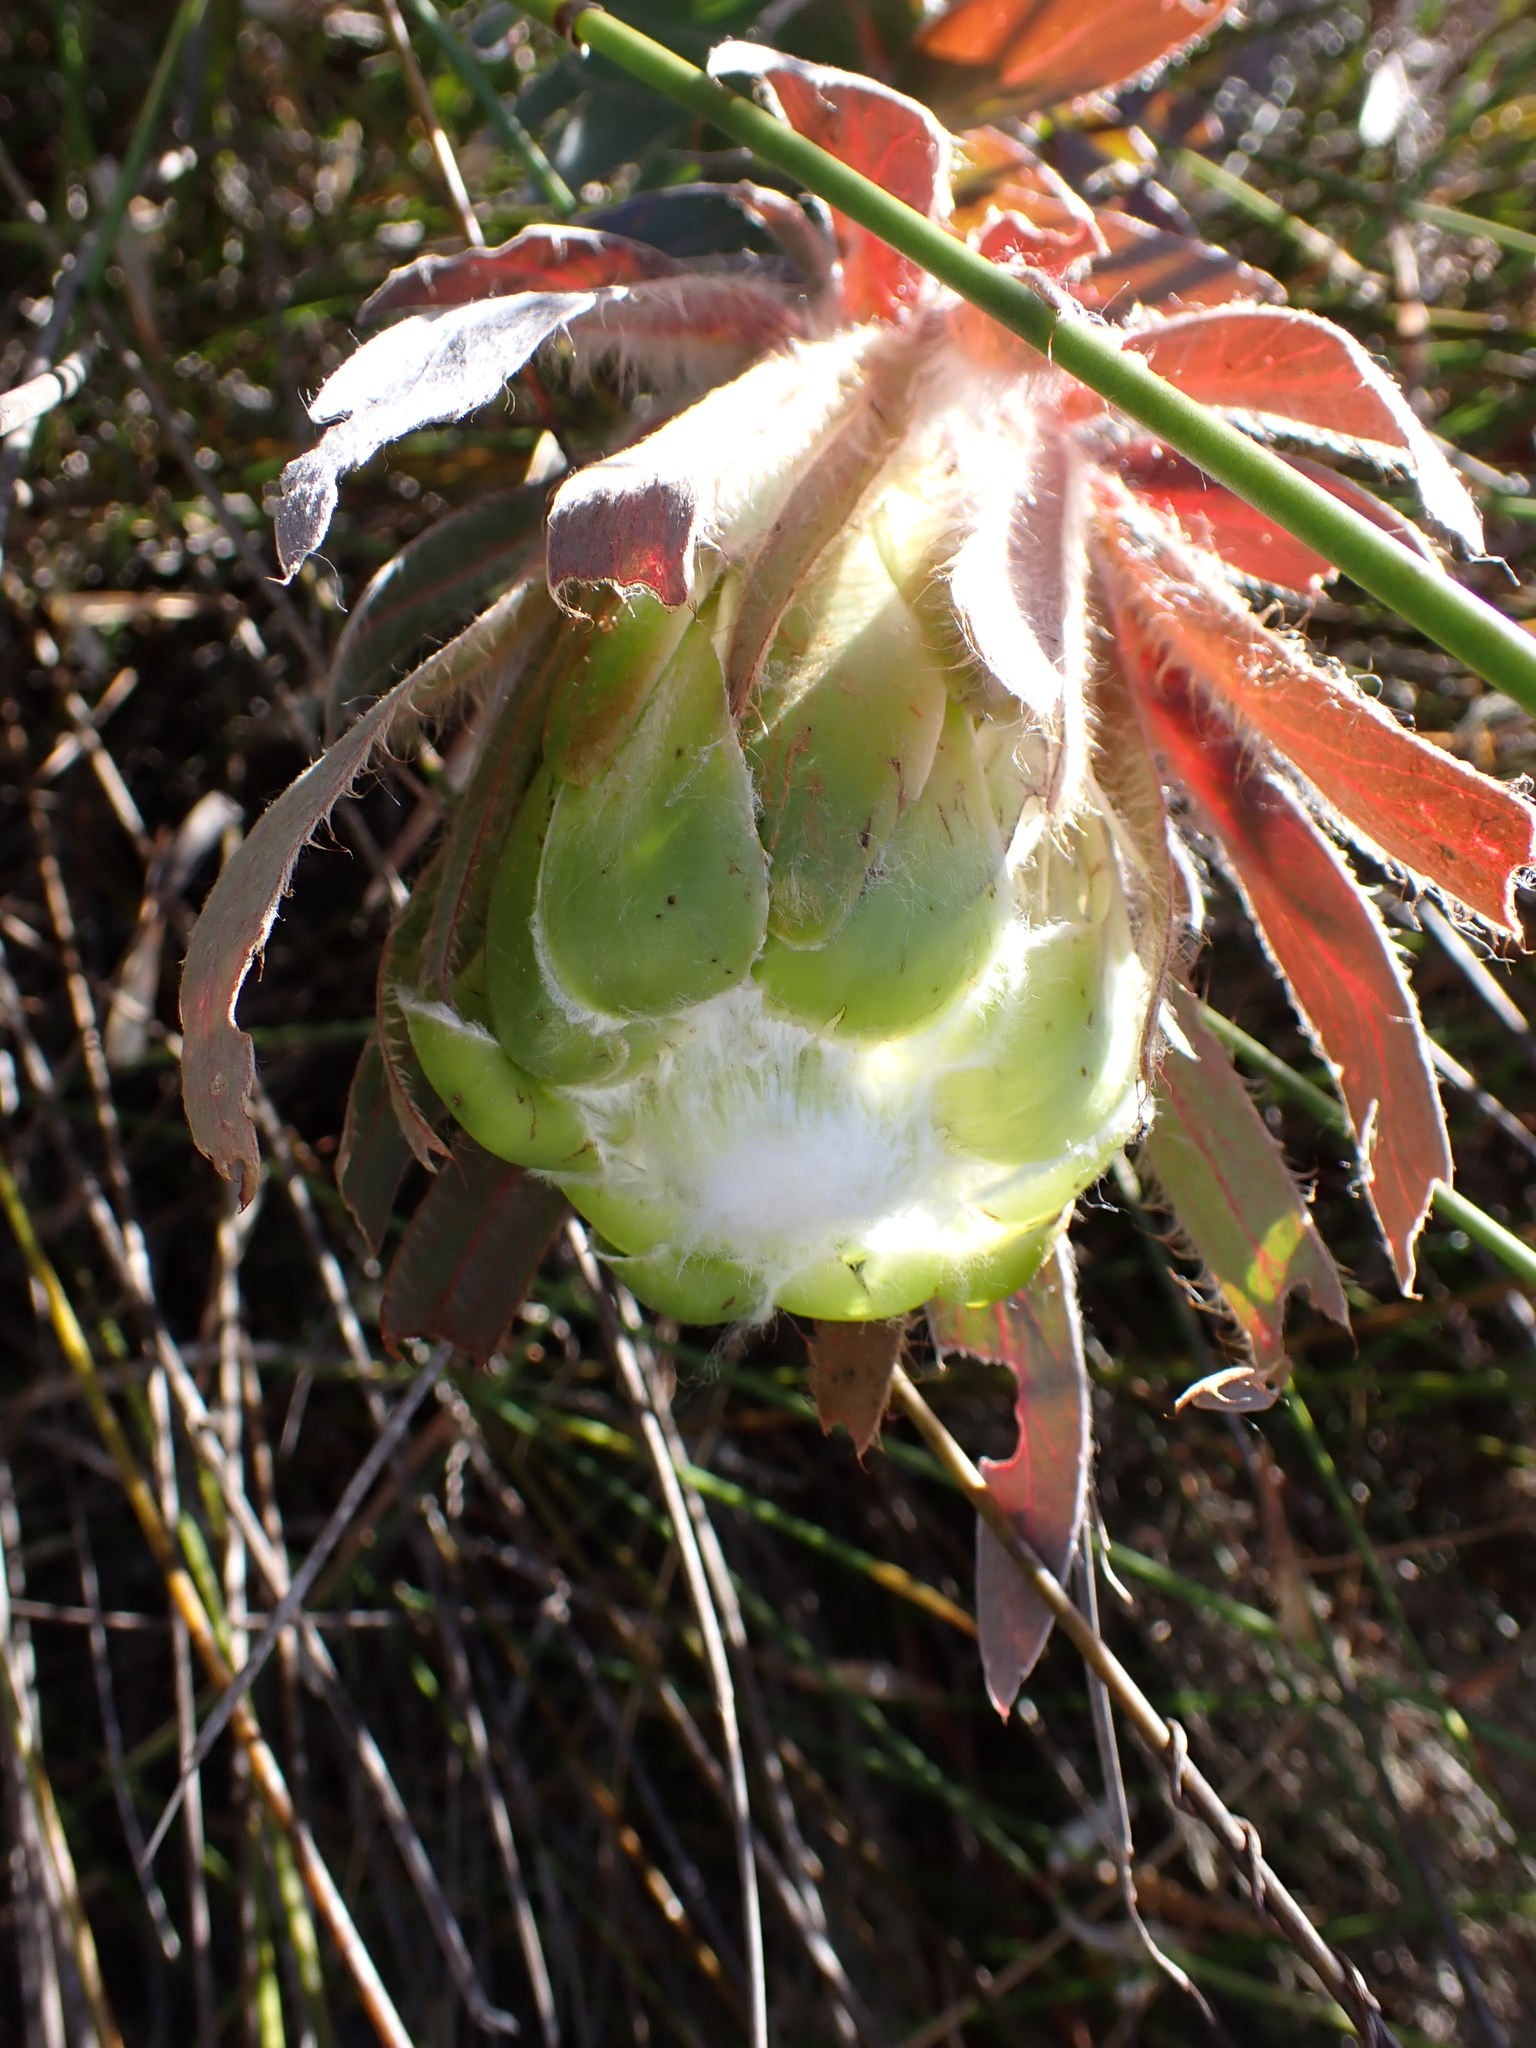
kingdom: Plantae
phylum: Tracheophyta
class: Magnoliopsida
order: Proteales
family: Proteaceae
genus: Protea
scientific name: Protea coronata
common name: Green sugarbush
